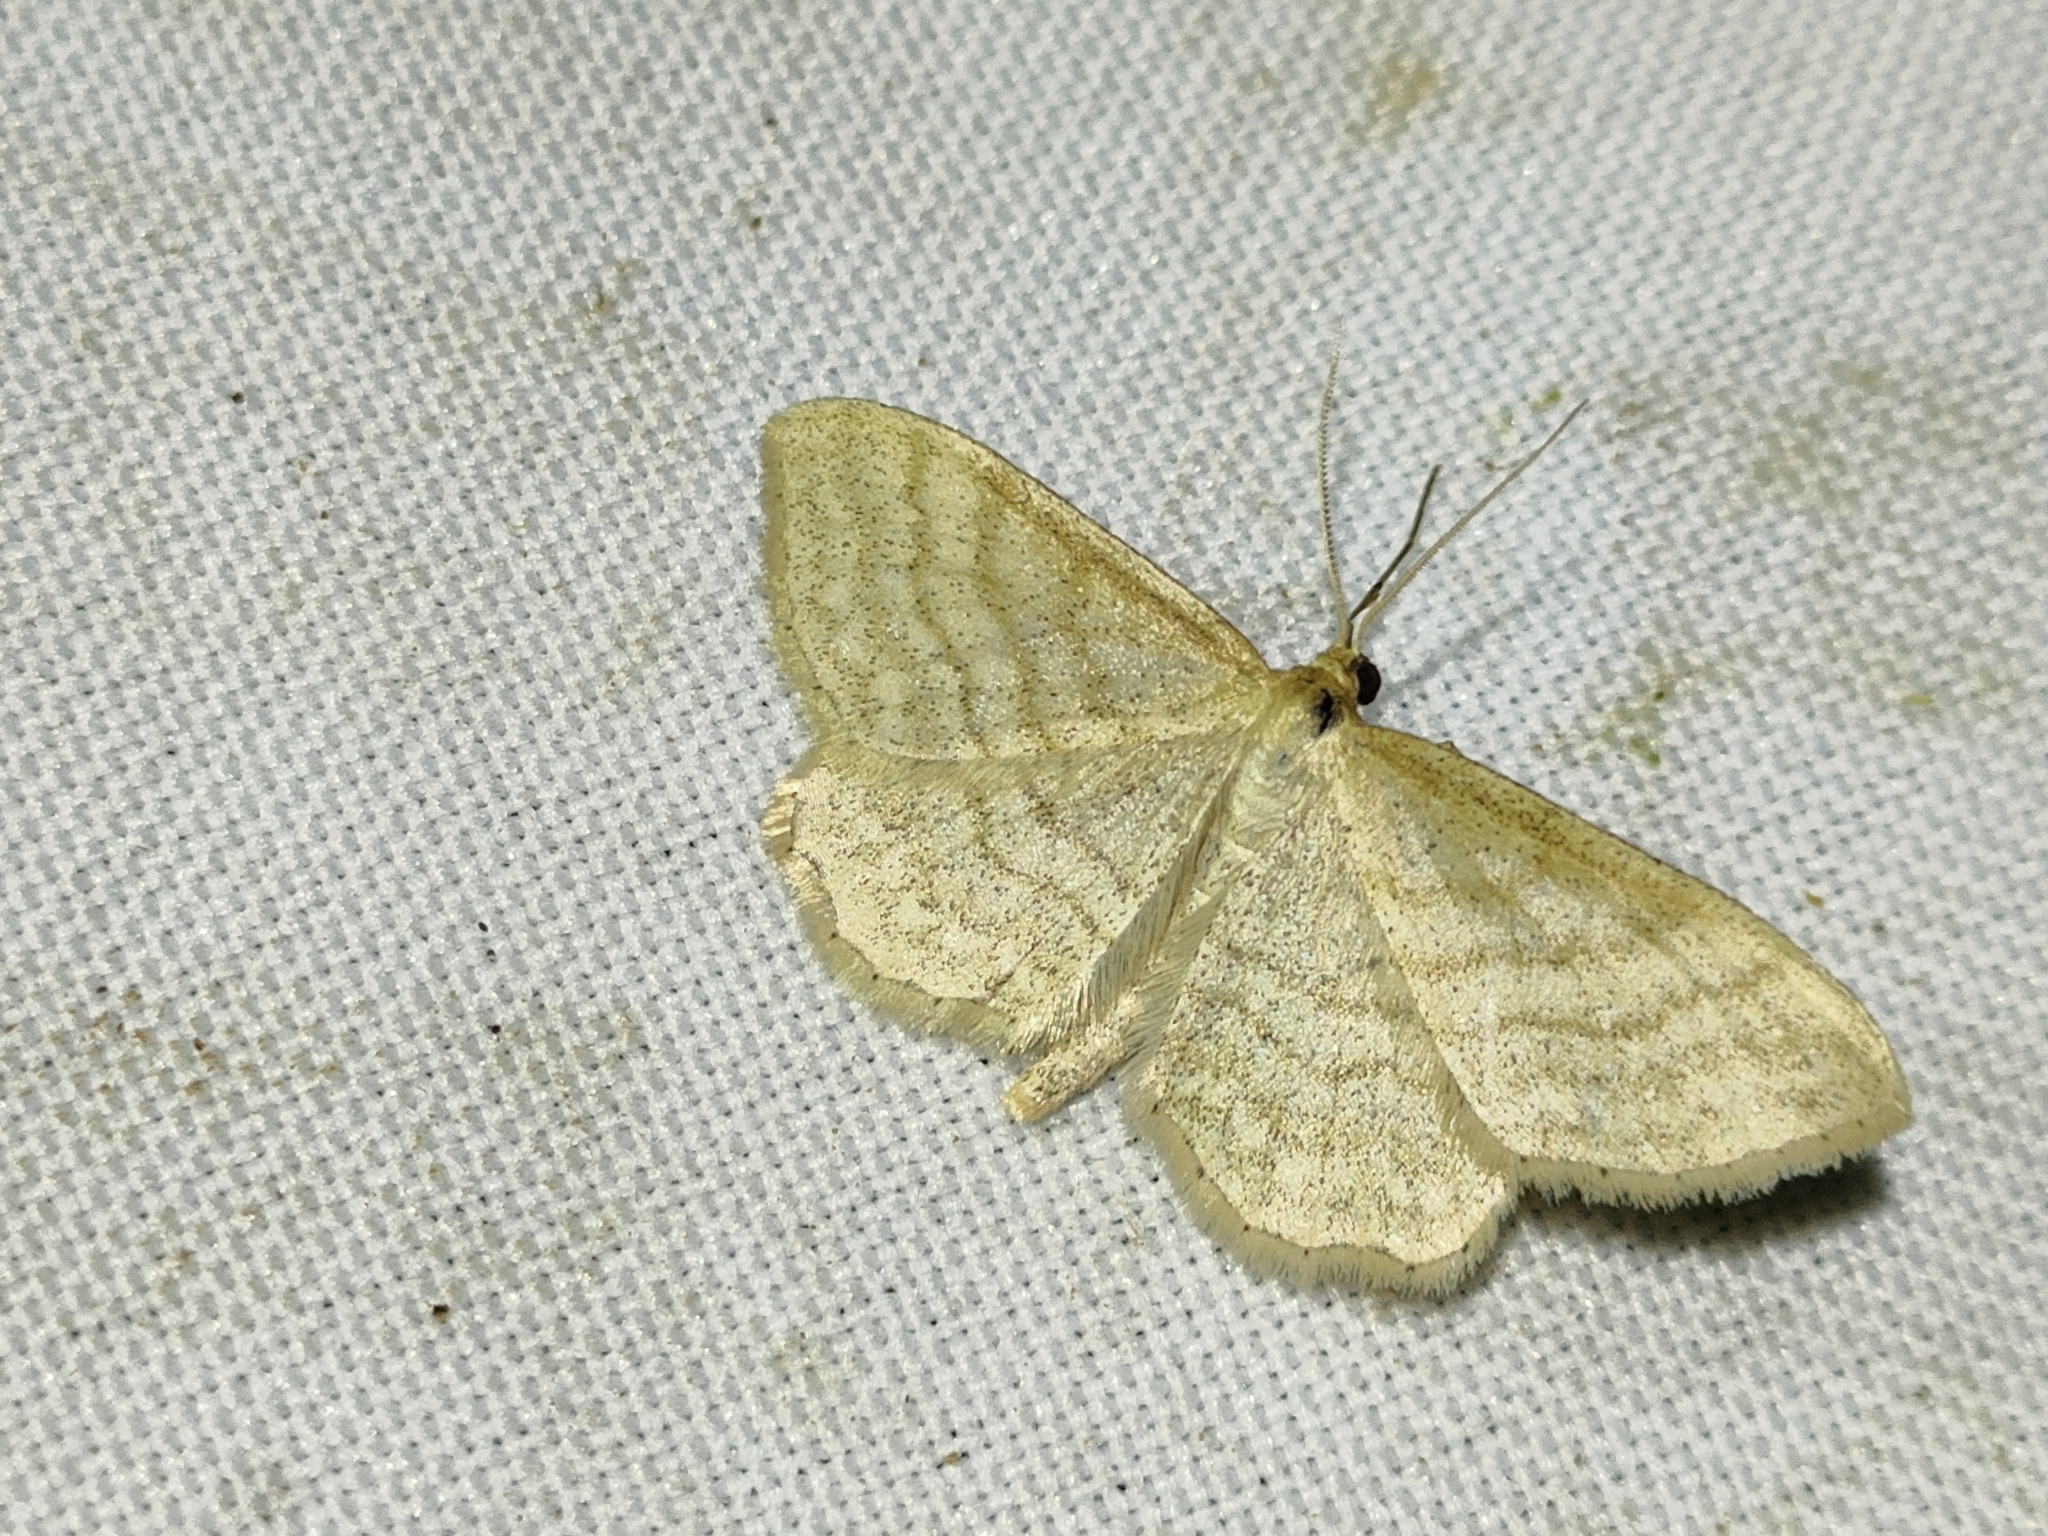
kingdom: Animalia
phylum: Arthropoda
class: Insecta
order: Lepidoptera
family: Geometridae
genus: Idaea
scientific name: Idaea subsericeata
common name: Satin wave
